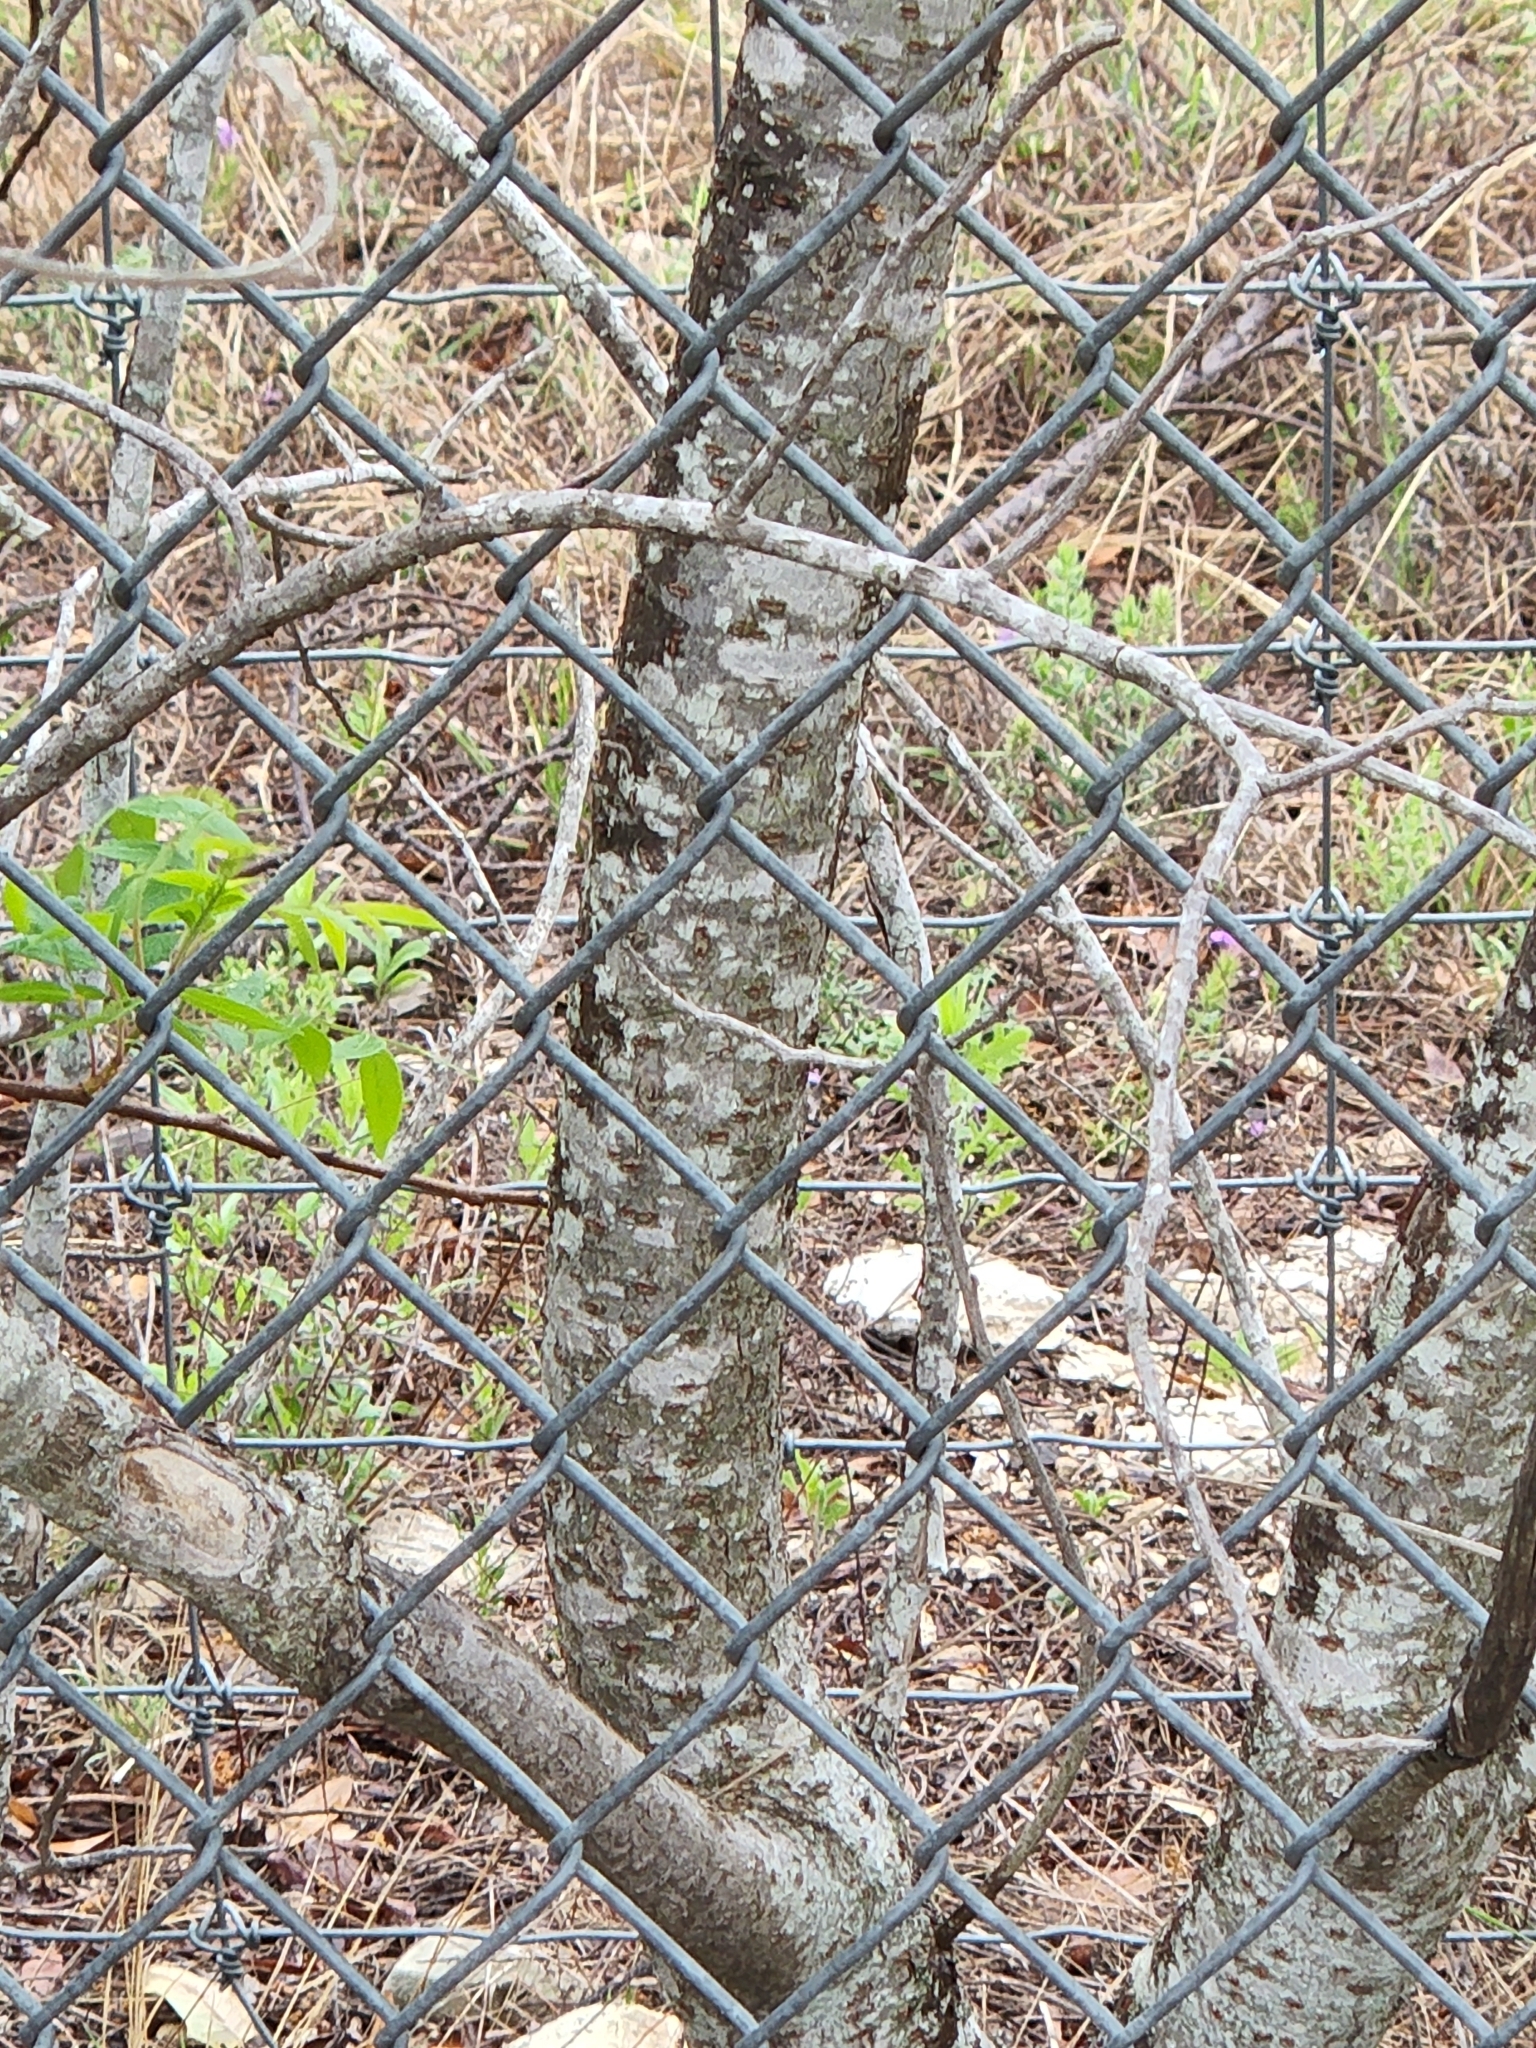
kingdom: Plantae
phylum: Tracheophyta
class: Magnoliopsida
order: Sapindales
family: Anacardiaceae
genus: Rhus
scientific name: Rhus lanceolata
